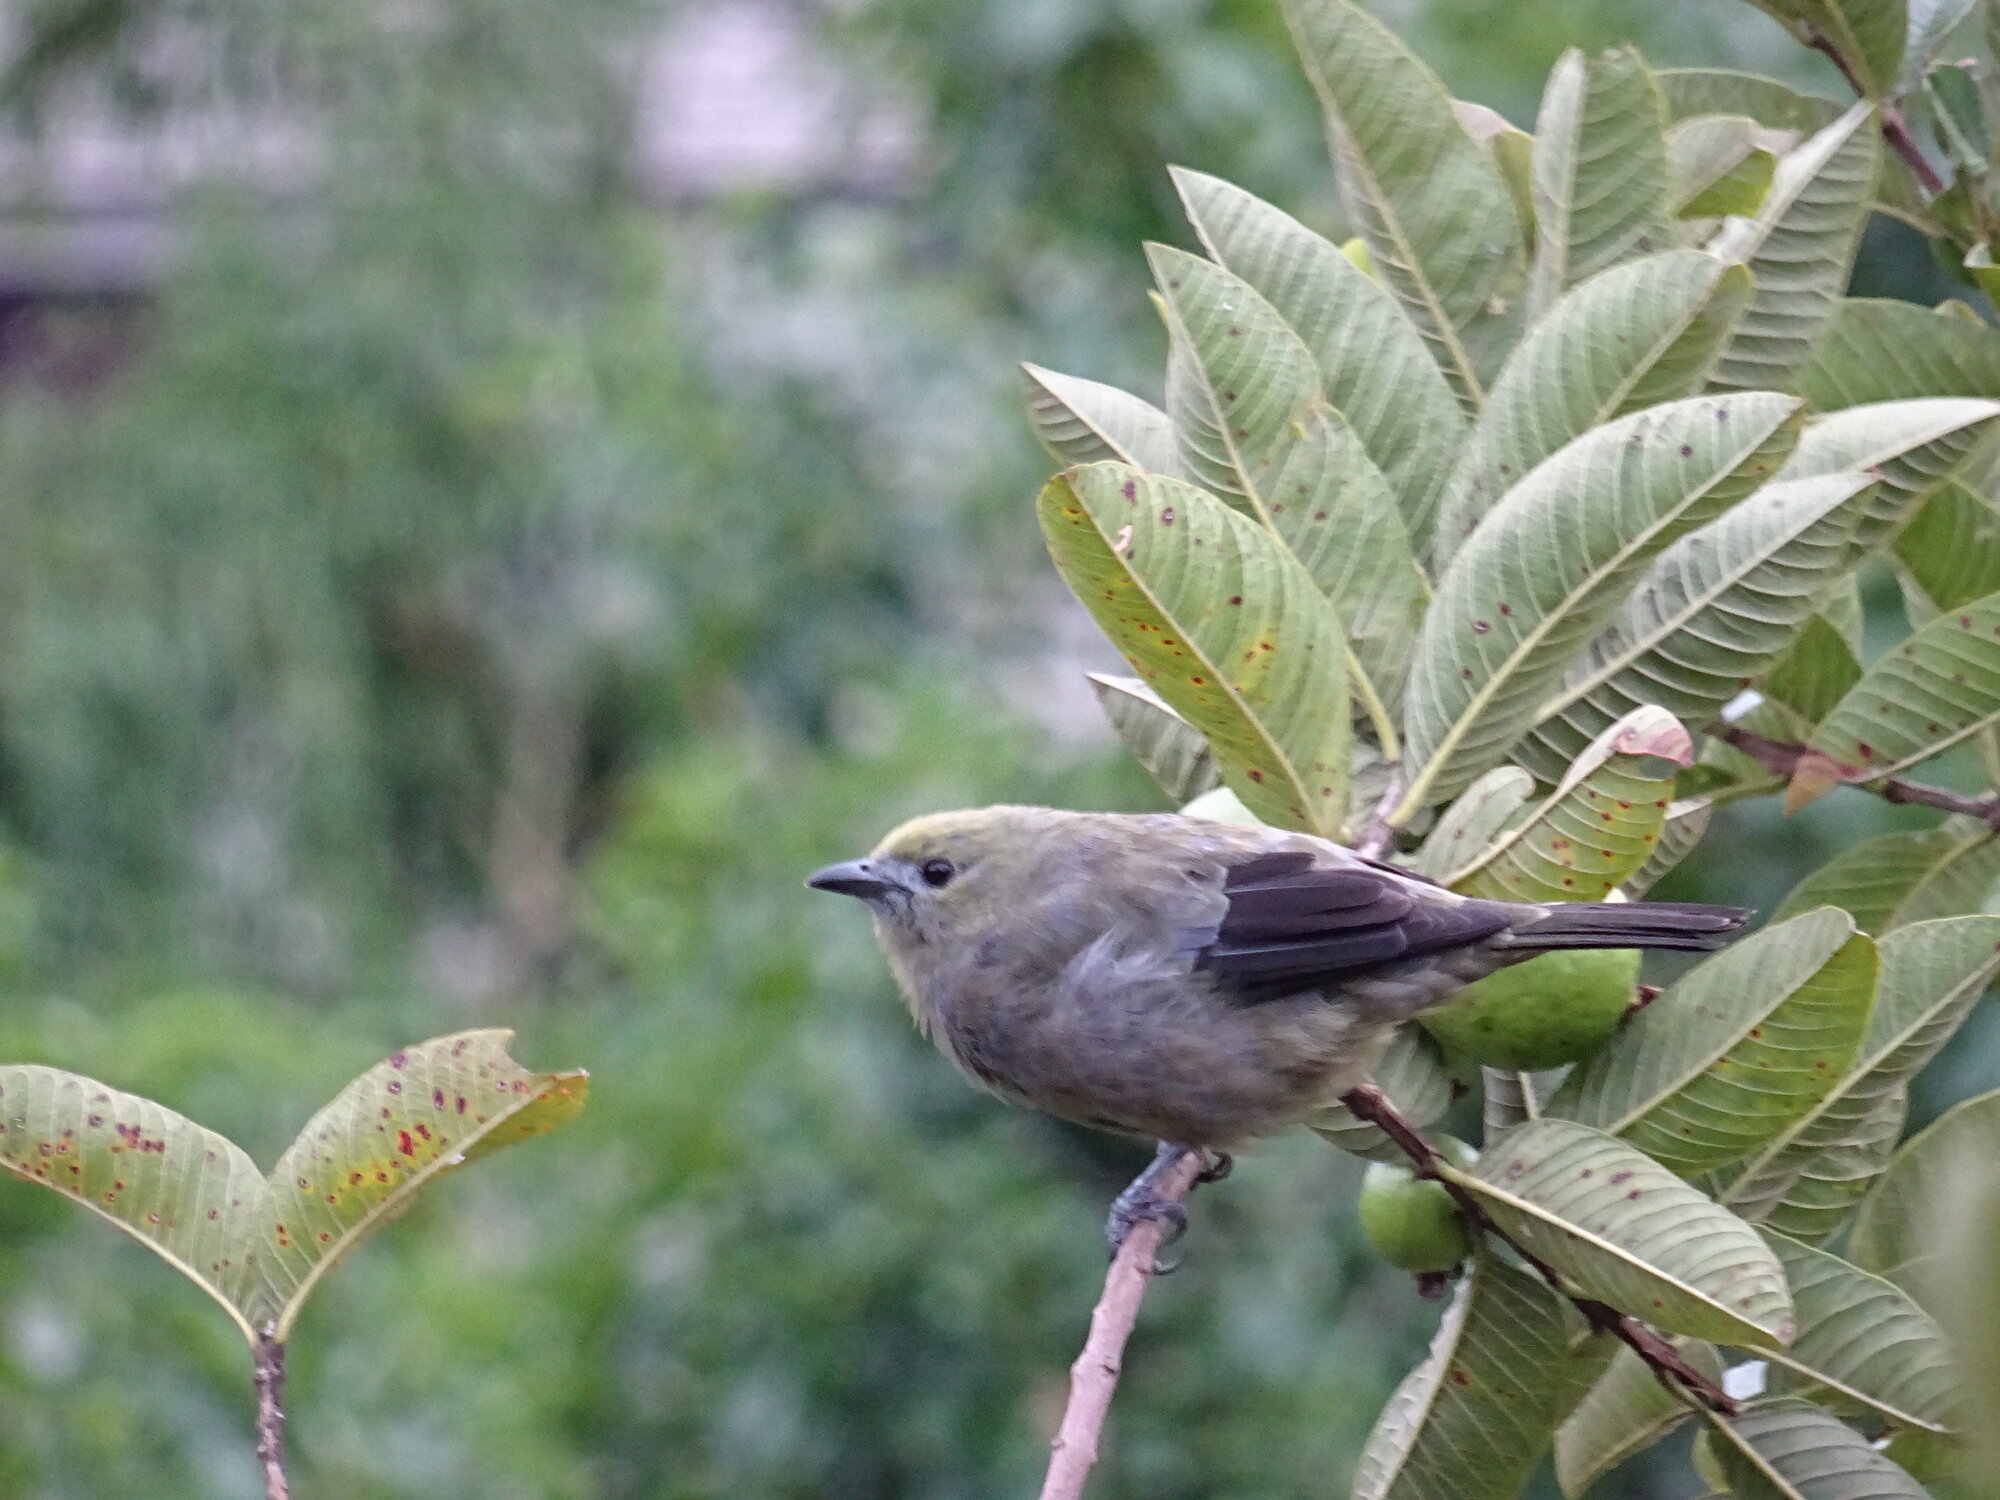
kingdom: Animalia
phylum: Chordata
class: Aves
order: Passeriformes
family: Thraupidae
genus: Thraupis
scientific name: Thraupis palmarum
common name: Palm tanager
